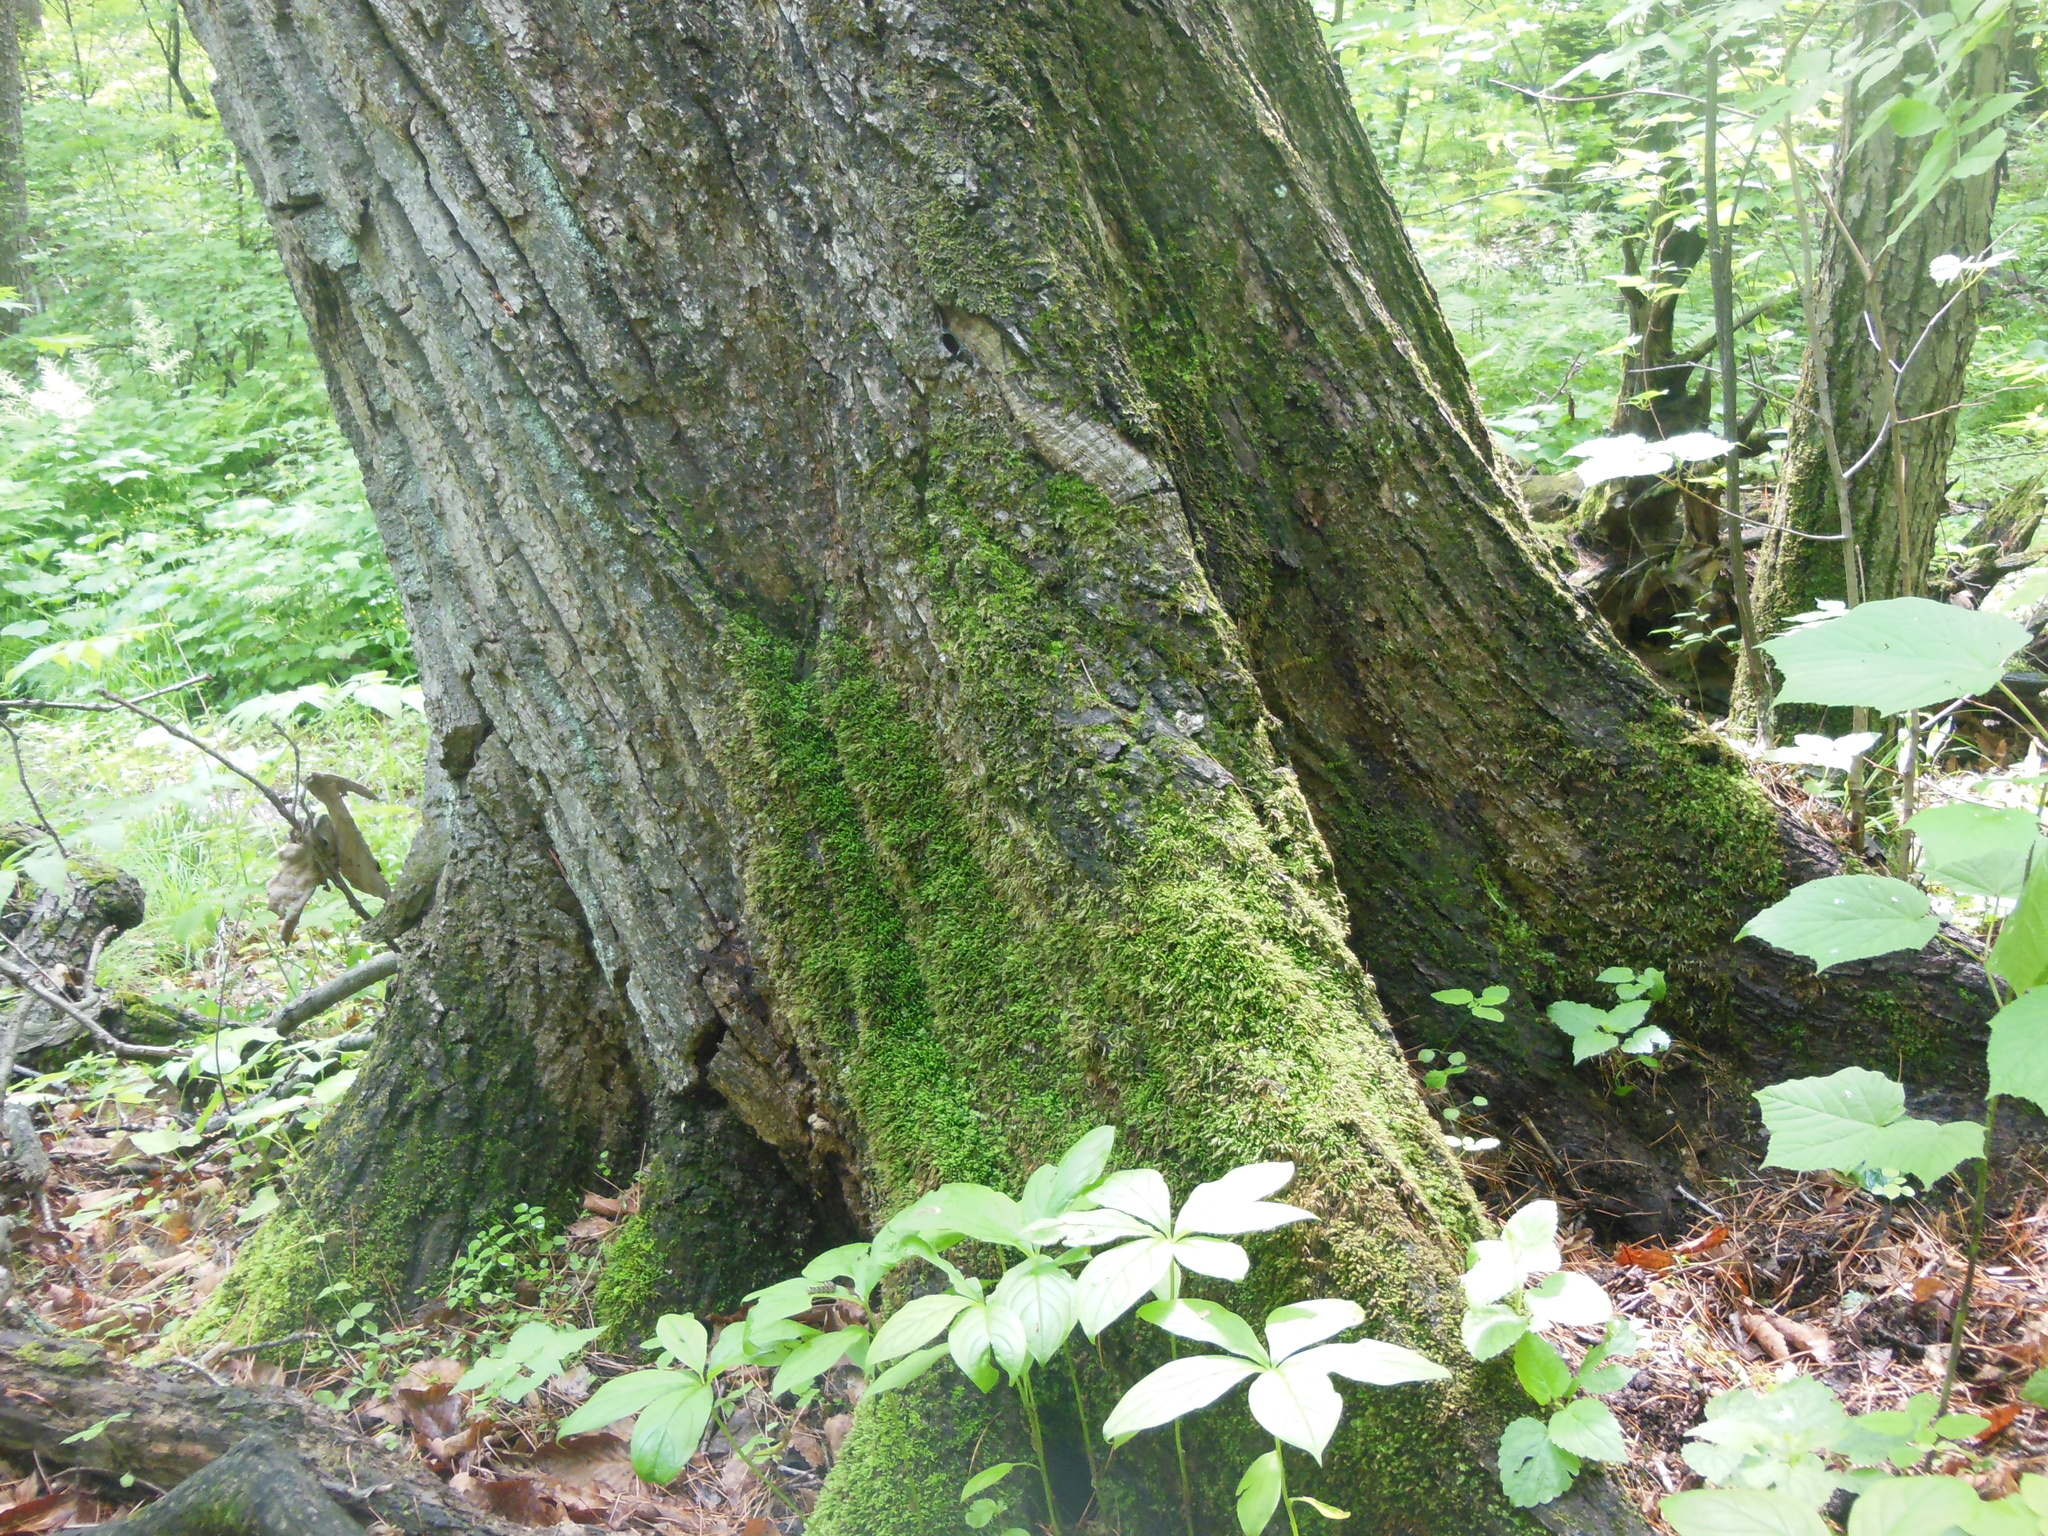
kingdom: Plantae
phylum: Tracheophyta
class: Magnoliopsida
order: Fagales
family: Fagaceae
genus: Quercus
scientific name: Quercus mongolica
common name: Mongolian oak
